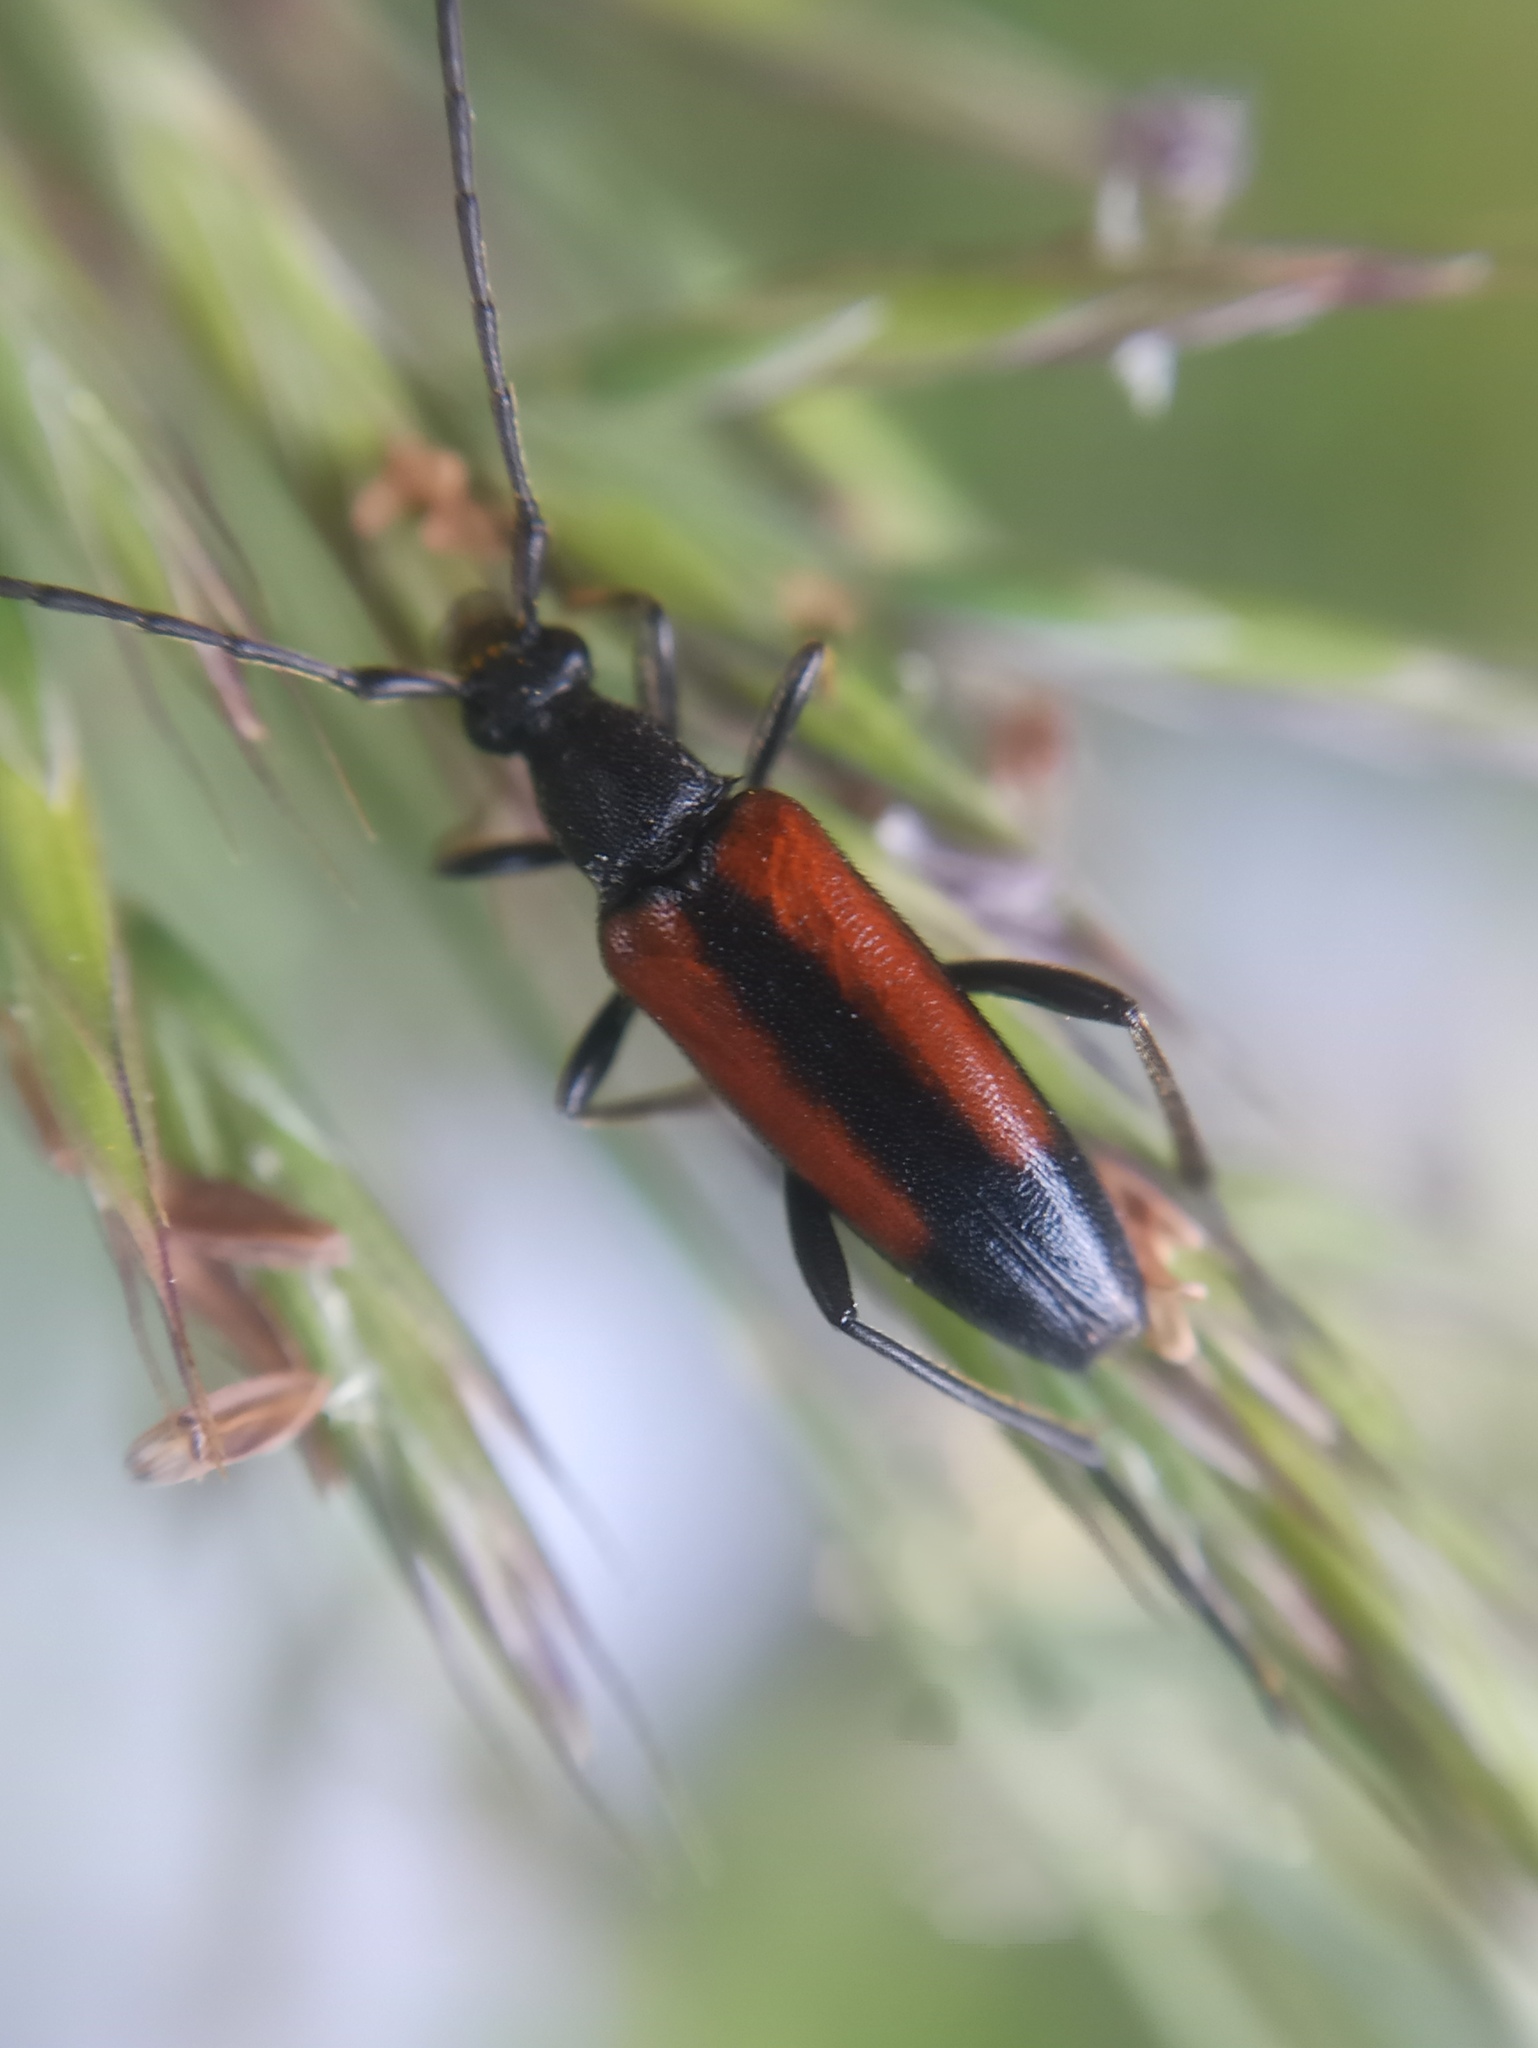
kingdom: Animalia
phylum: Arthropoda
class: Insecta
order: Coleoptera
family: Cerambycidae
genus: Stenurella
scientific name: Stenurella melanura
